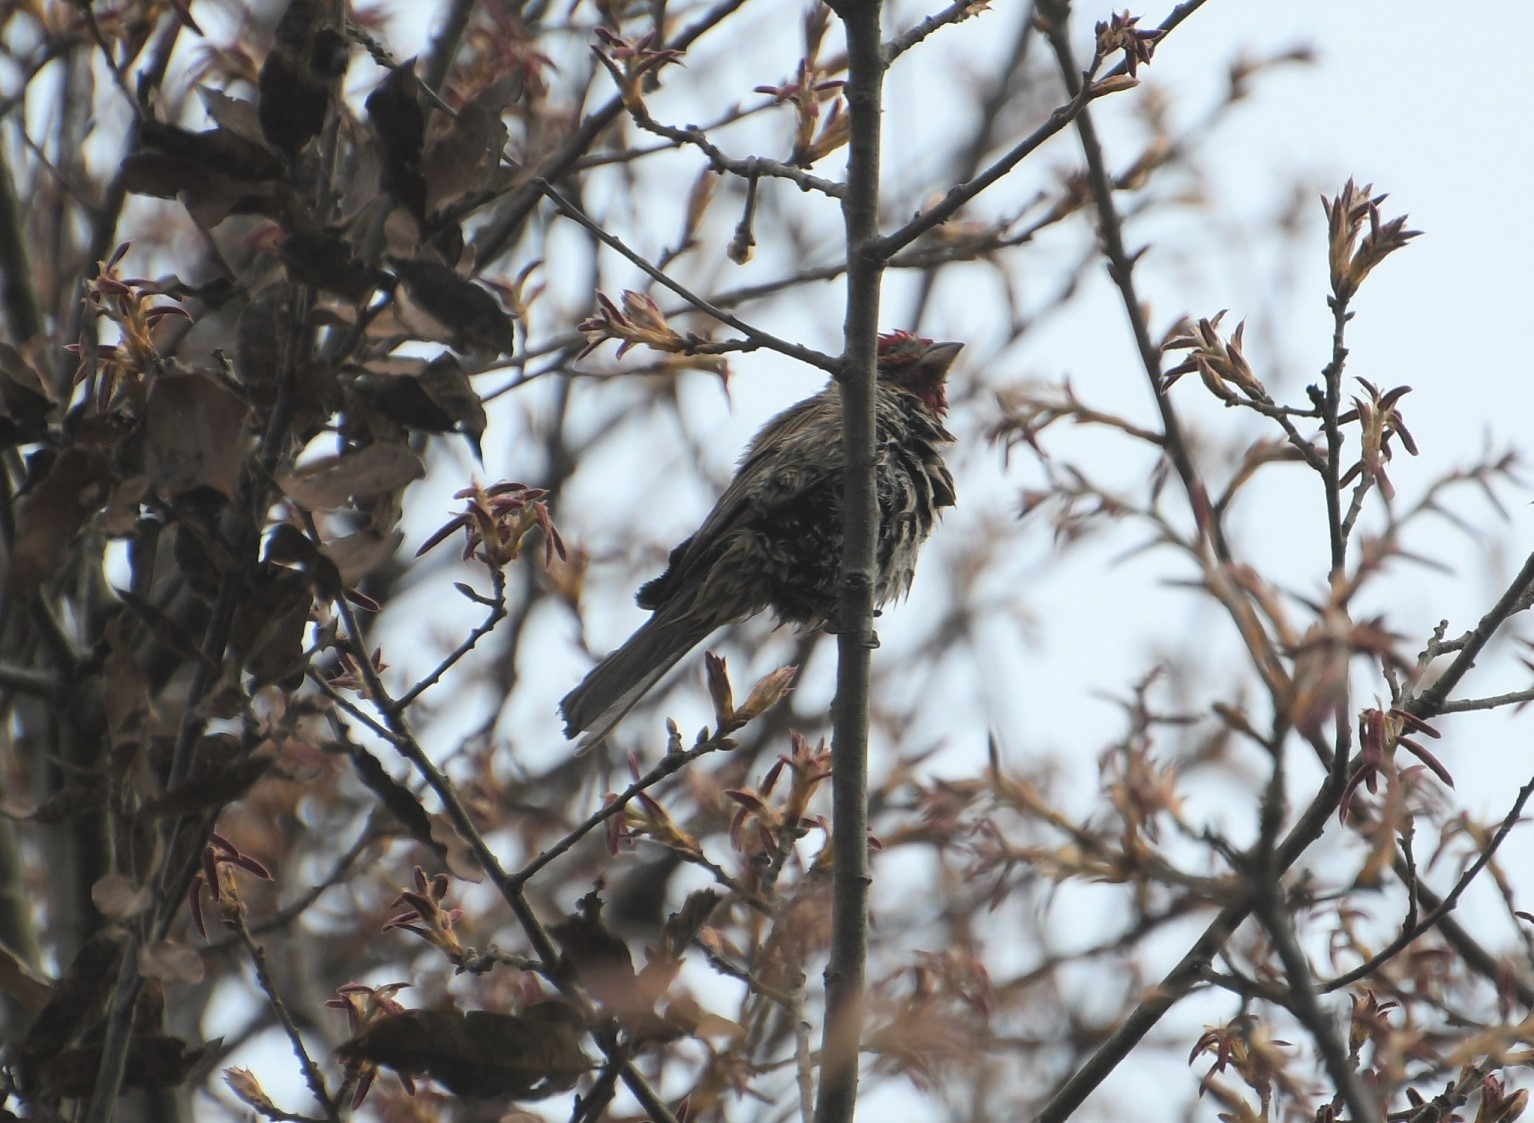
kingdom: Animalia
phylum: Chordata
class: Aves
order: Passeriformes
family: Fringillidae
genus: Haemorhous
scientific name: Haemorhous mexicanus
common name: House finch
